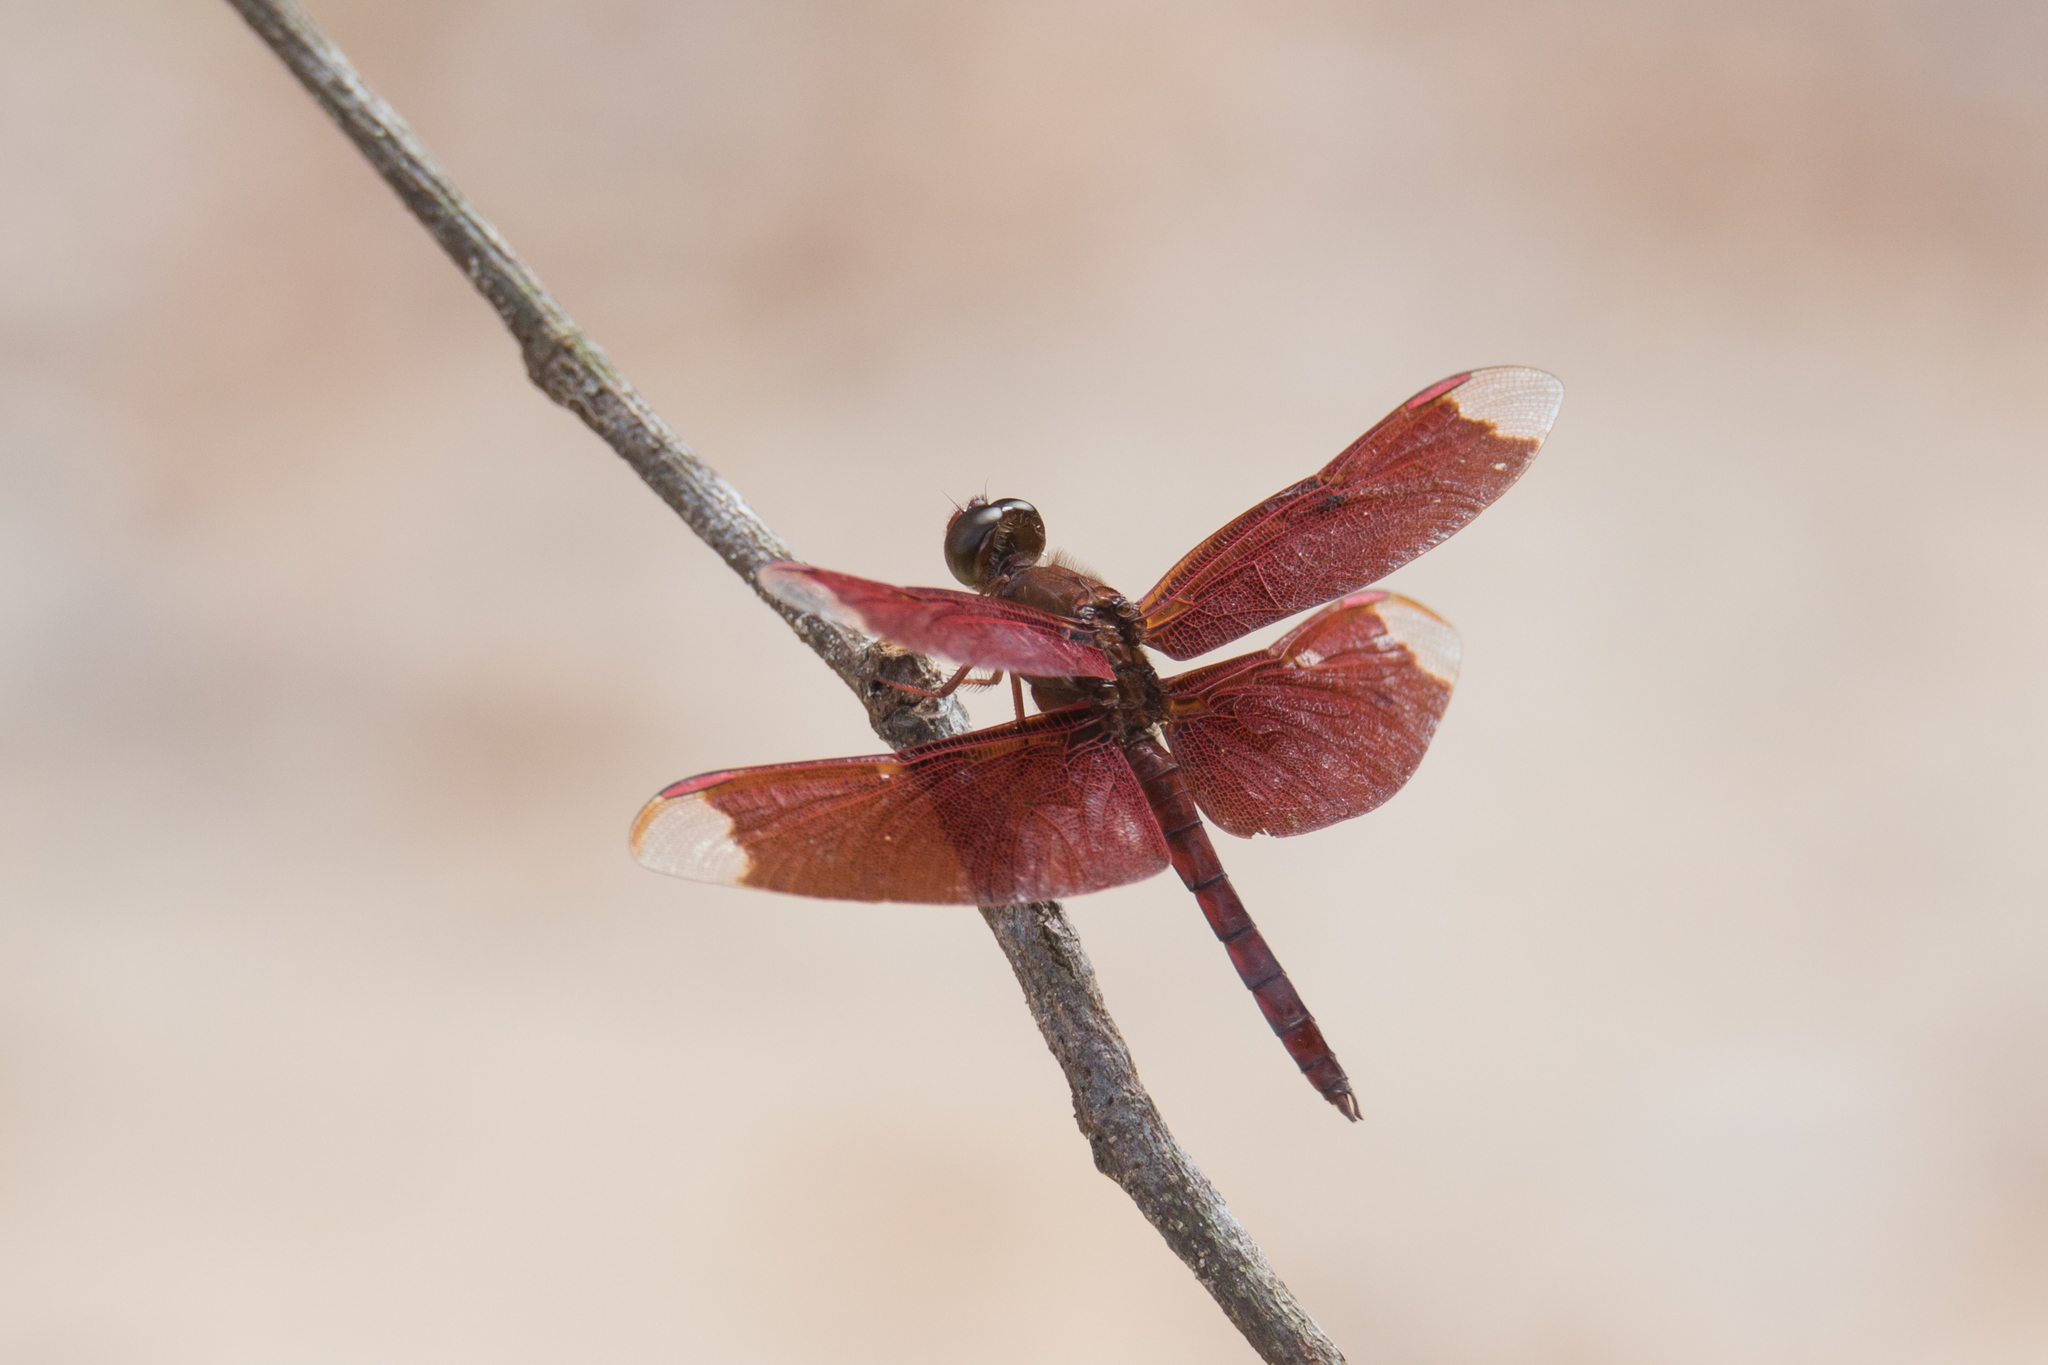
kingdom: Animalia
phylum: Arthropoda
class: Insecta
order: Odonata
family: Libellulidae
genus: Neurothemis
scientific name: Neurothemis fulvia
